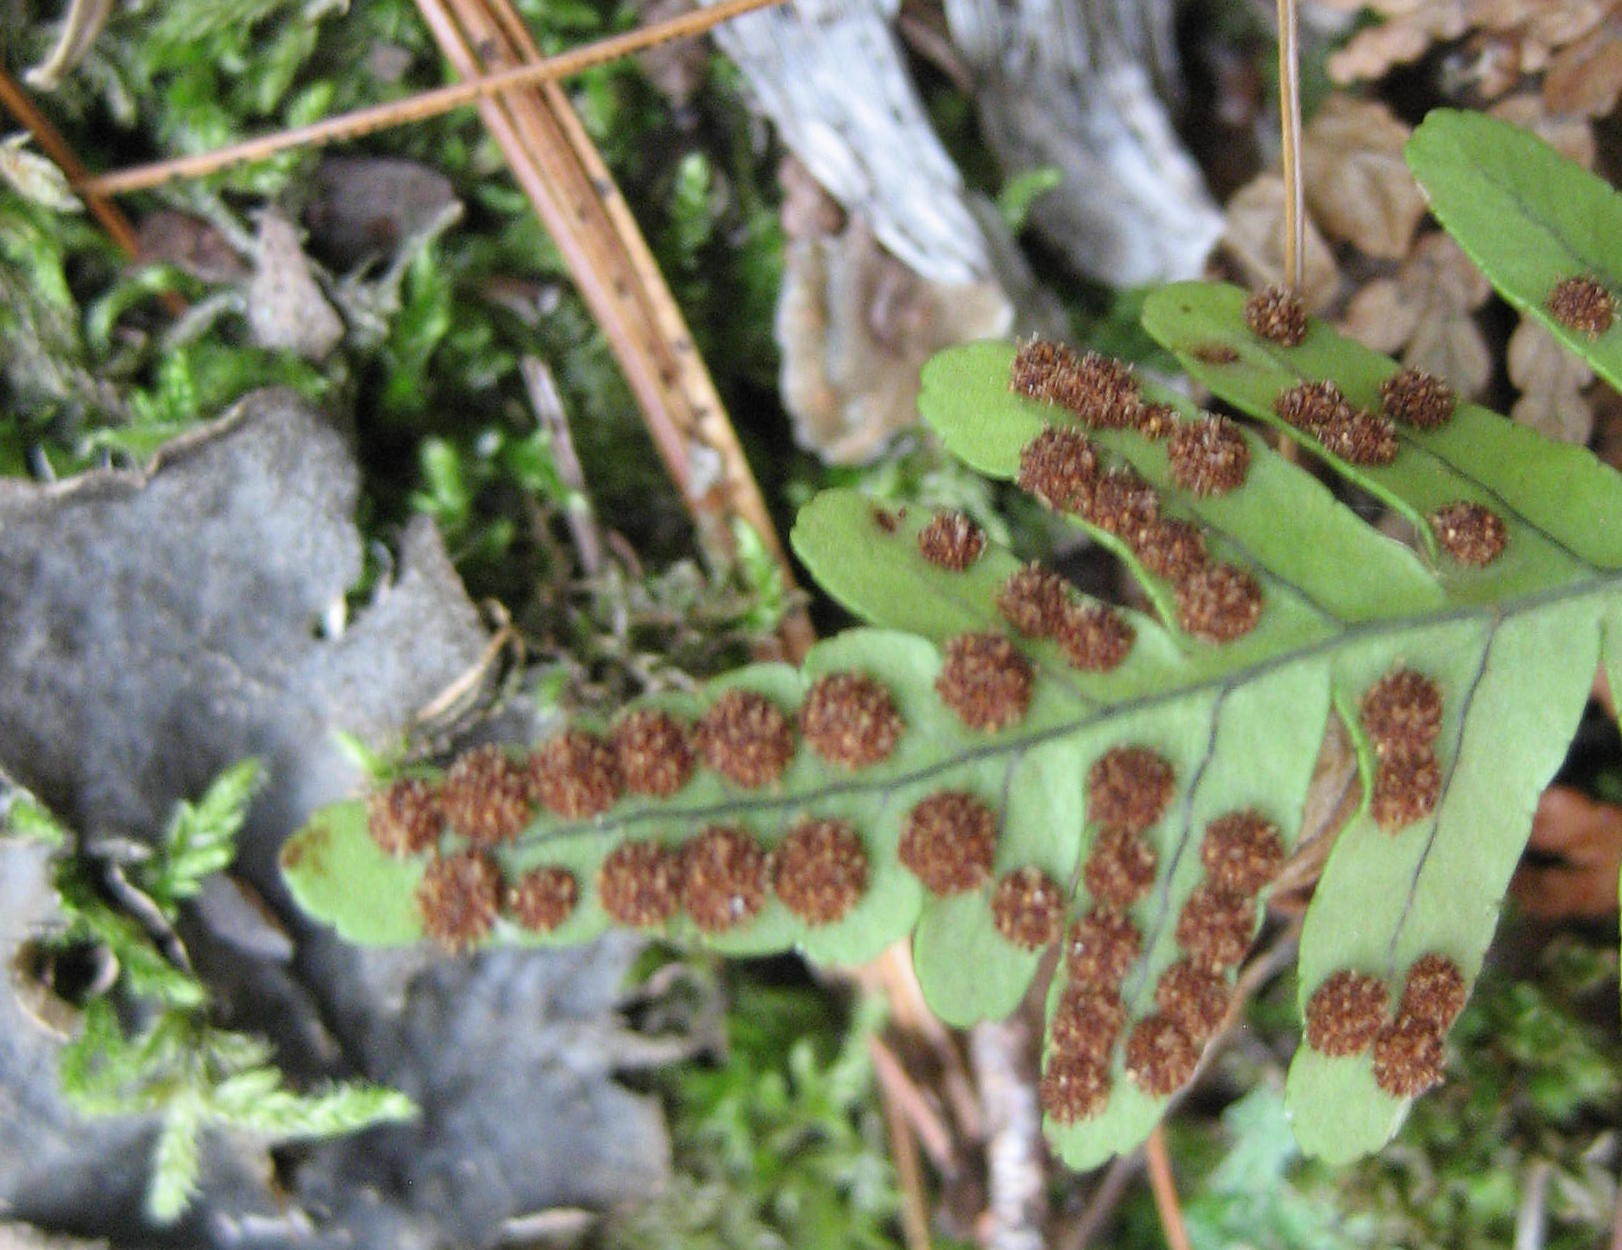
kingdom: Plantae
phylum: Tracheophyta
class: Polypodiopsida
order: Polypodiales
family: Polypodiaceae
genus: Polypodium
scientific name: Polypodium virginianum
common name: American wall fern
